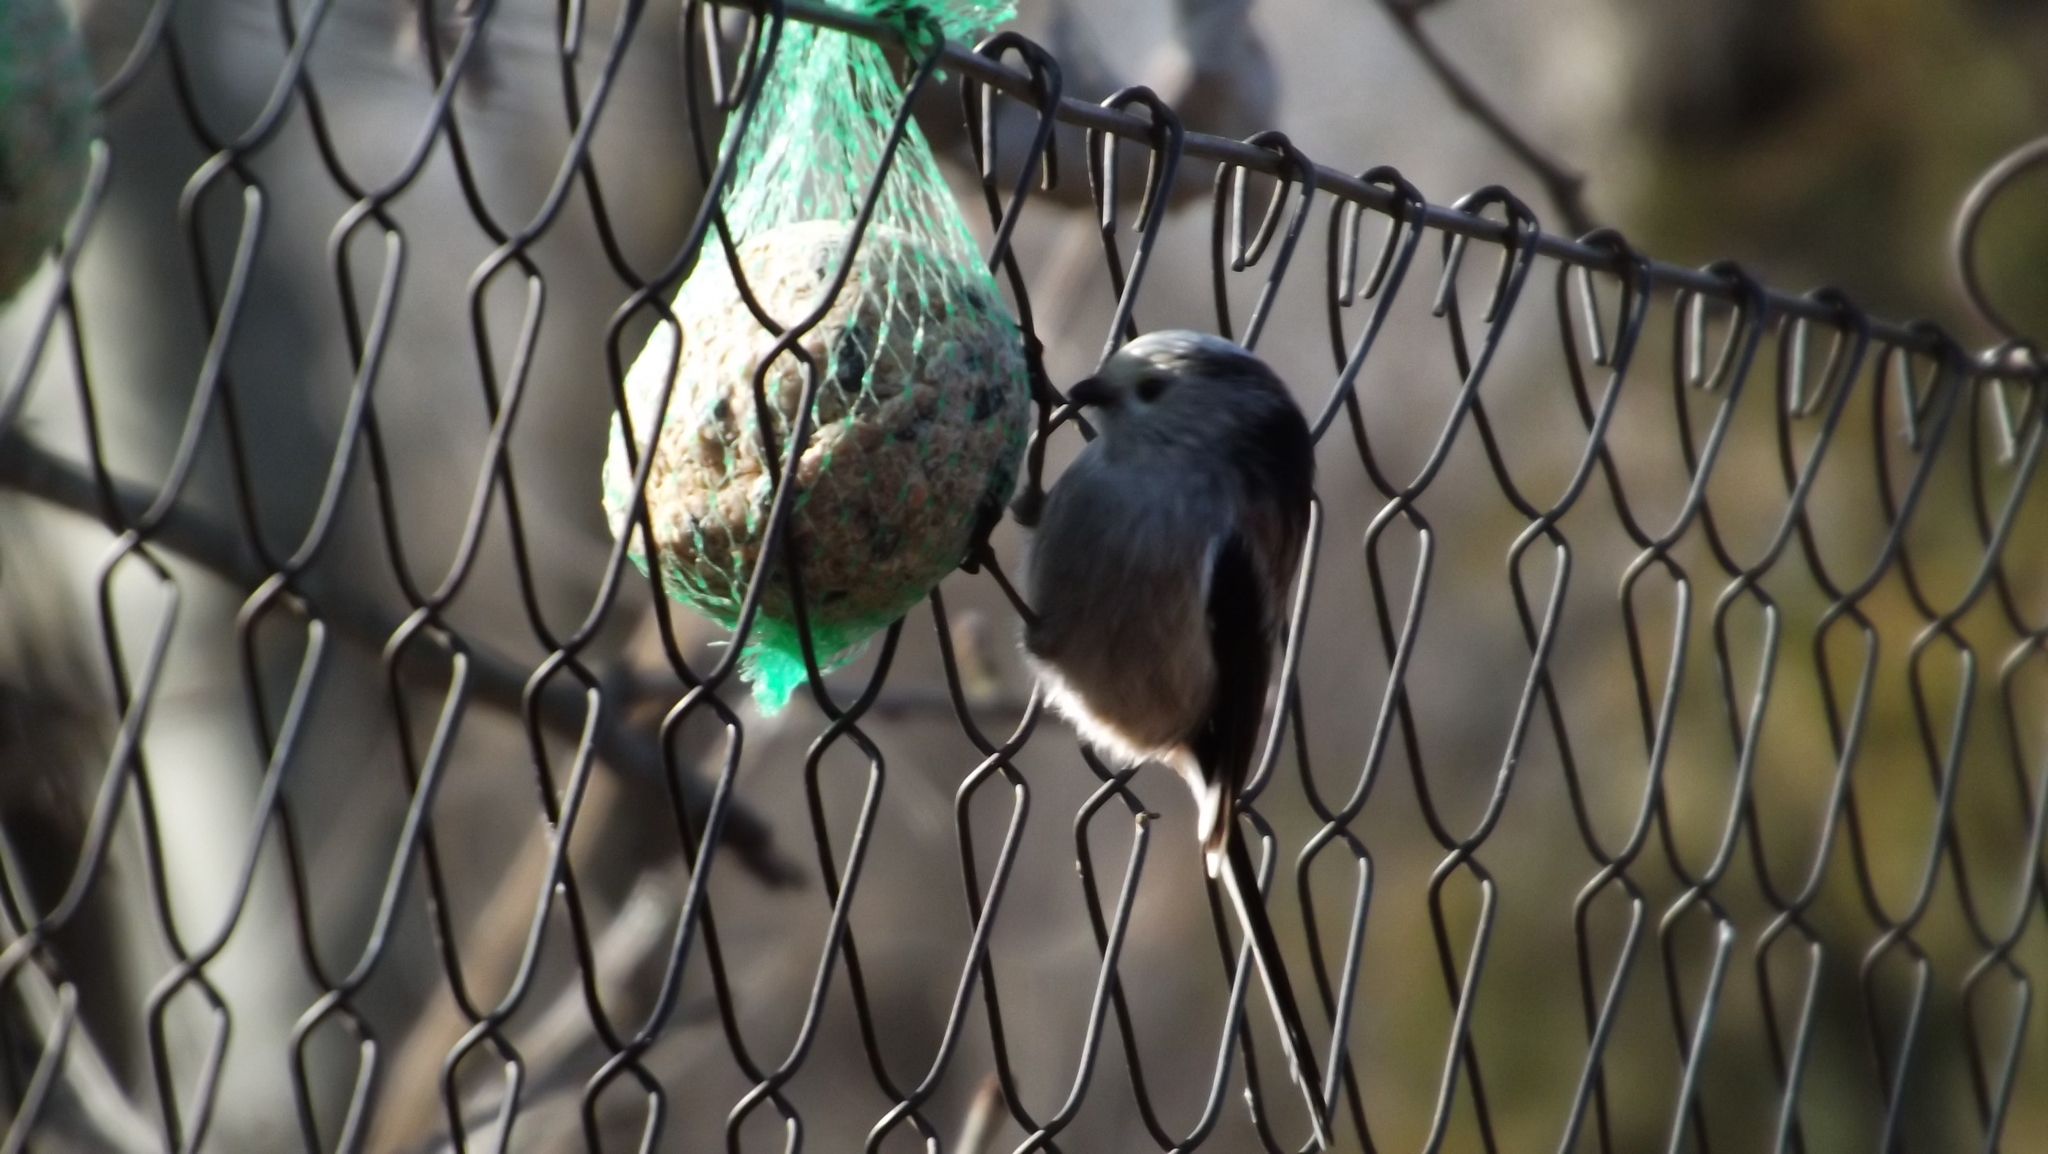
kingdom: Animalia
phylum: Chordata
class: Aves
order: Passeriformes
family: Aegithalidae
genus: Aegithalos
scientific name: Aegithalos caudatus
